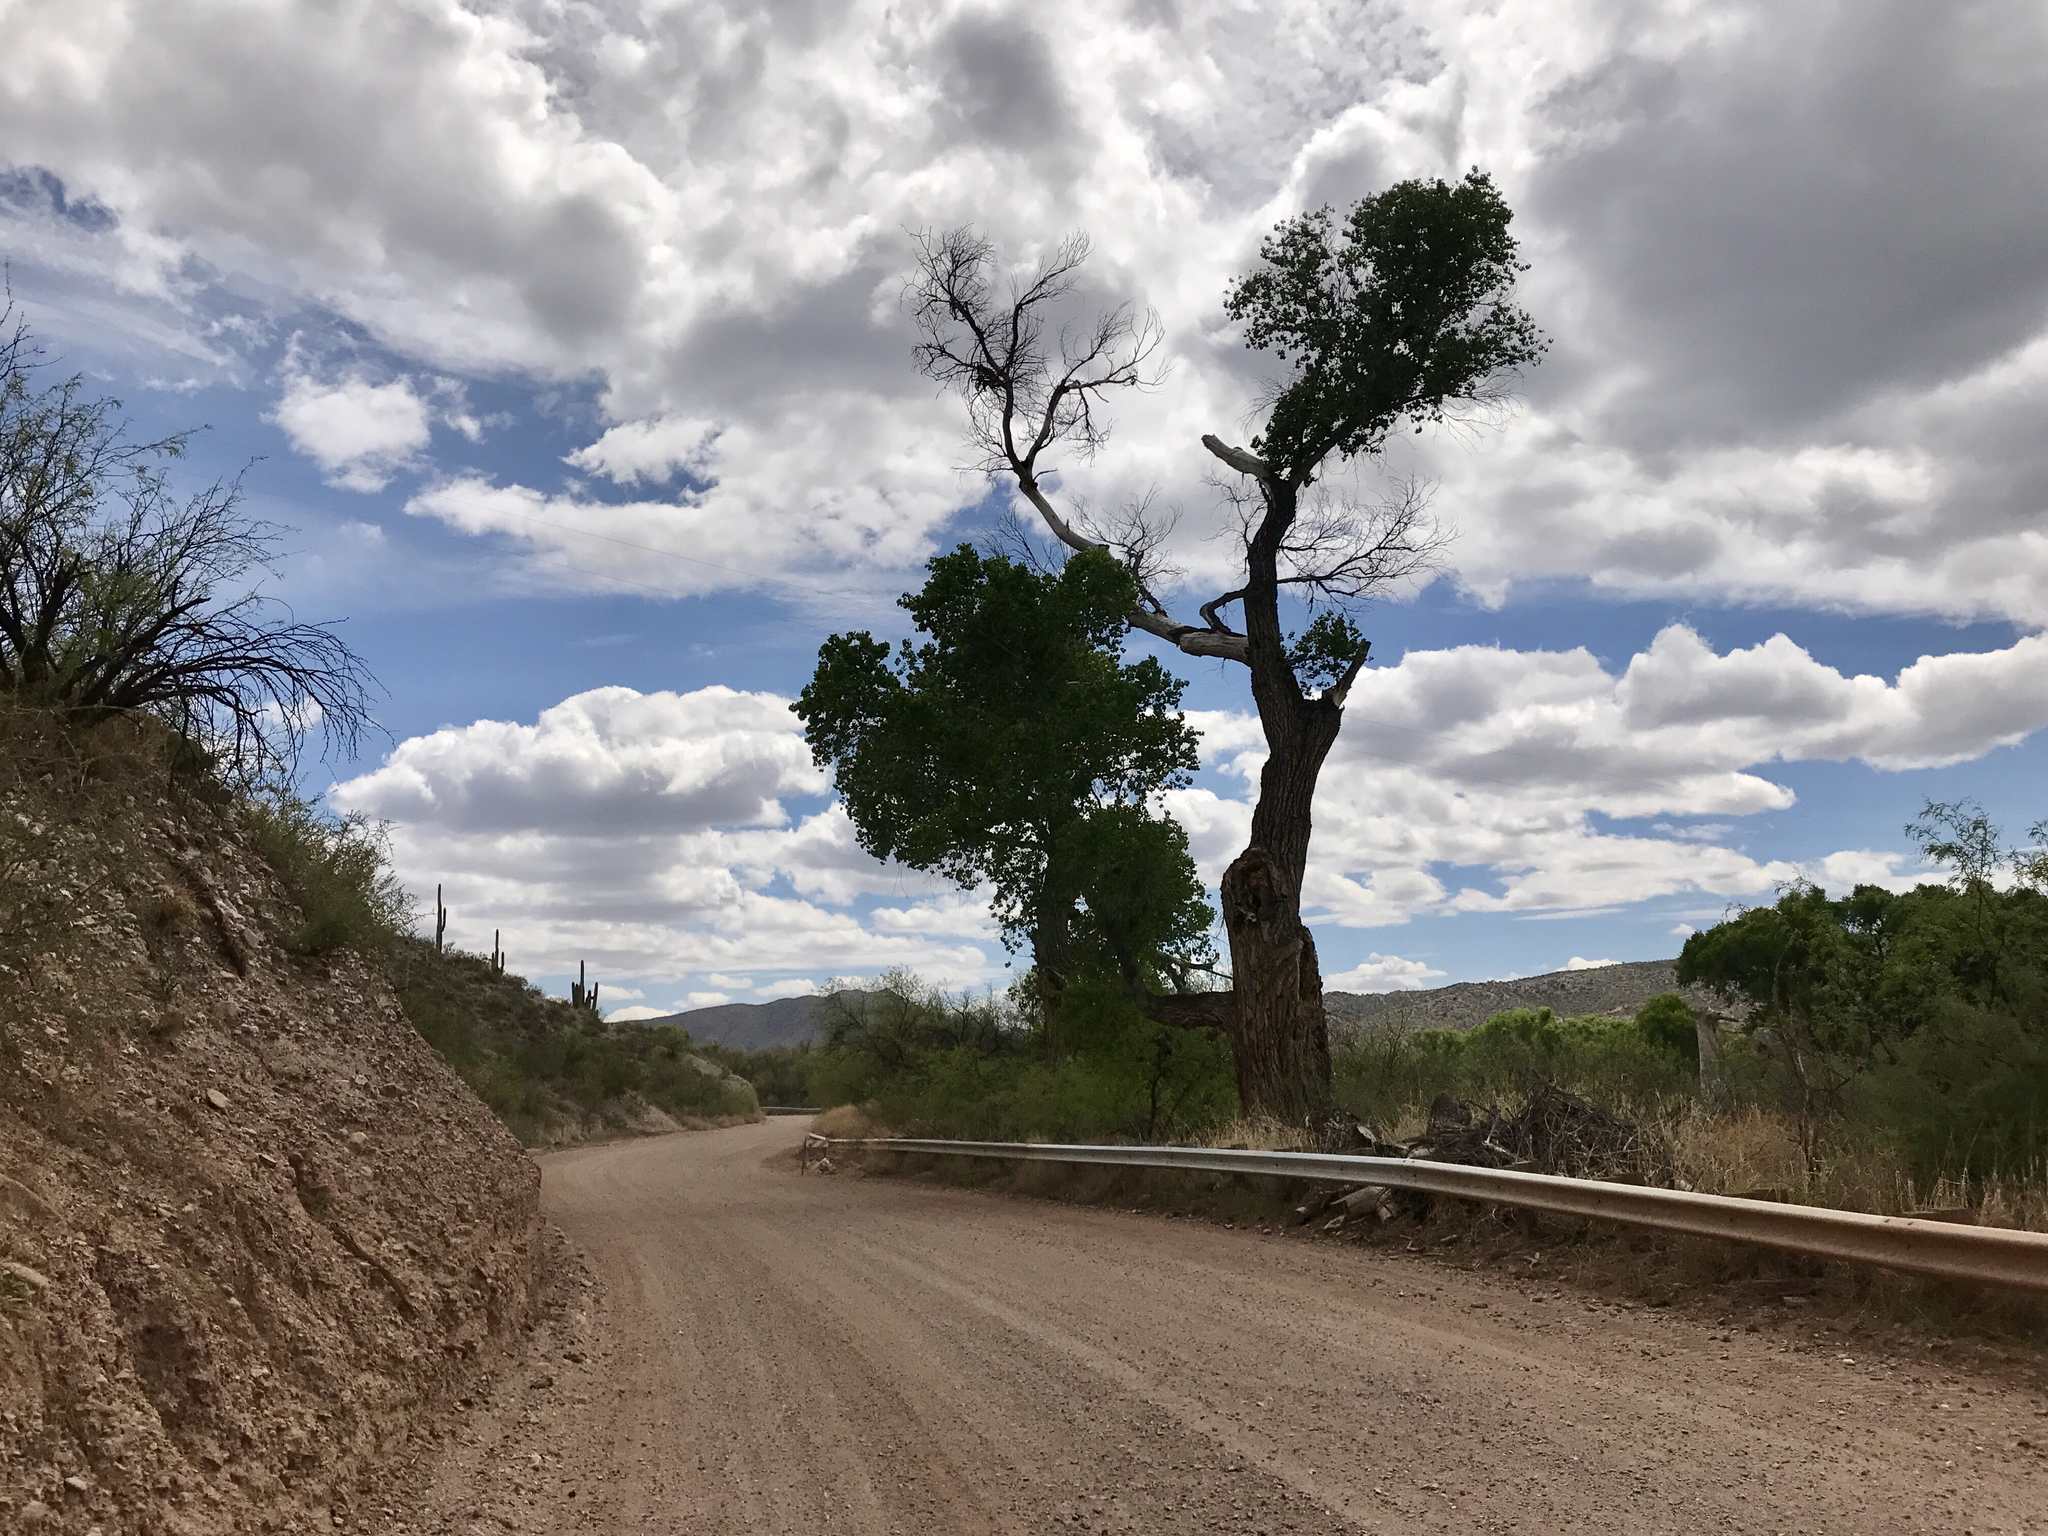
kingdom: Plantae
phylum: Tracheophyta
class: Magnoliopsida
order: Malpighiales
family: Salicaceae
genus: Populus
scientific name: Populus fremontii
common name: Fremont's cottonwood
